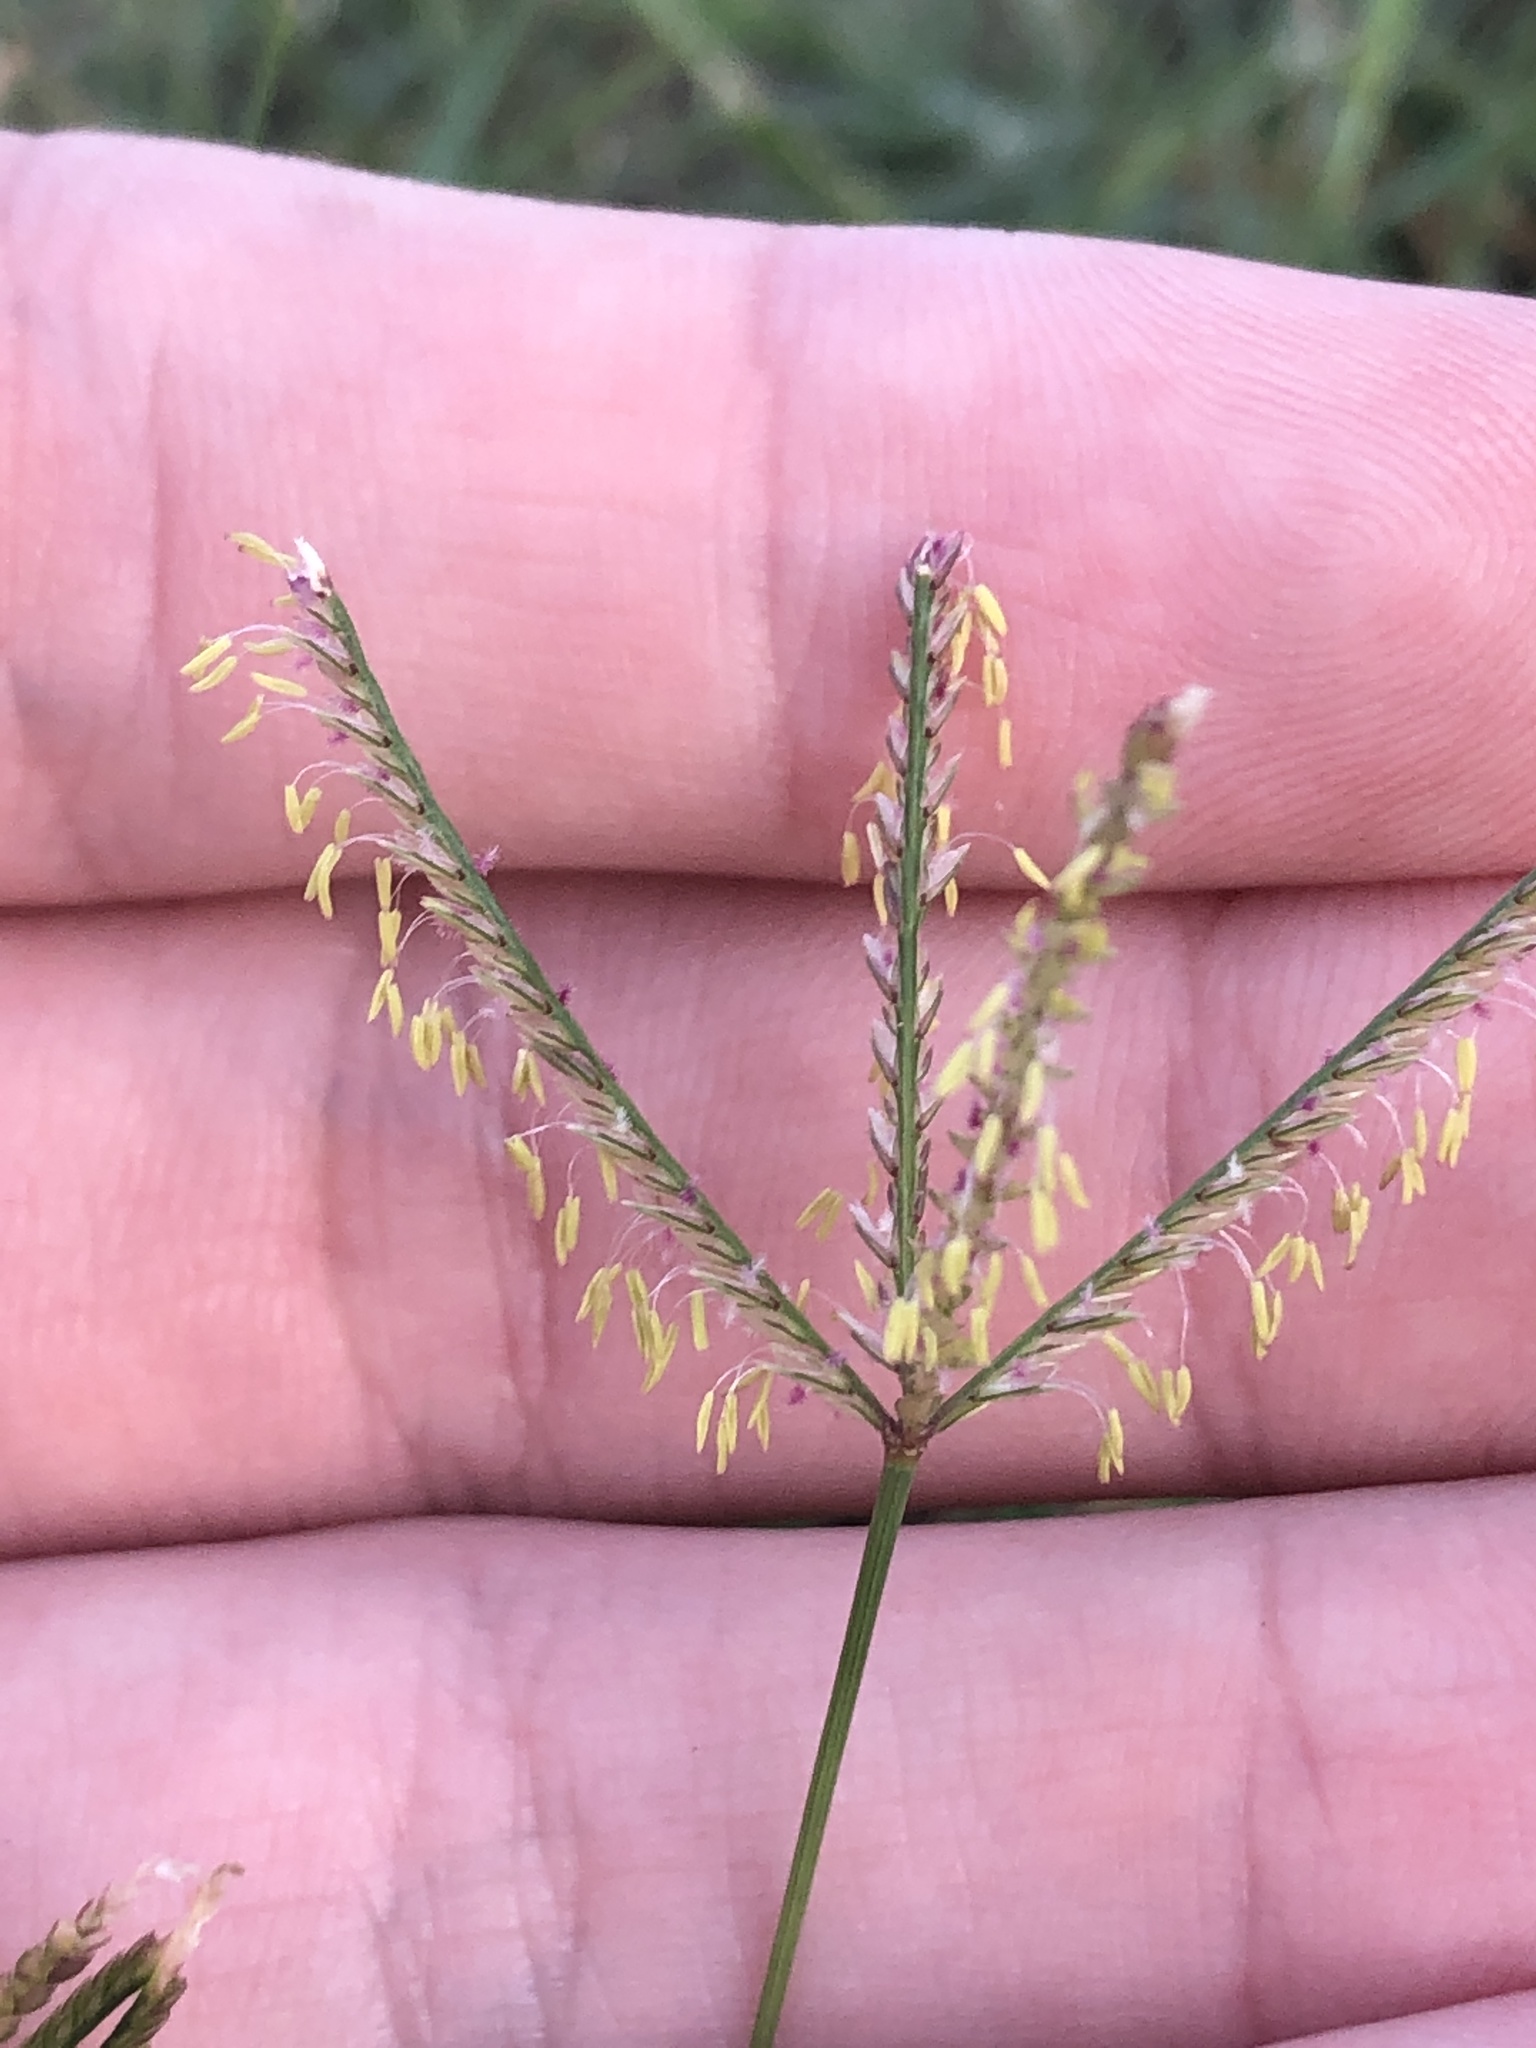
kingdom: Plantae
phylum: Tracheophyta
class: Liliopsida
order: Poales
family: Poaceae
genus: Cynodon
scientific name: Cynodon dactylon
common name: Bermuda grass
